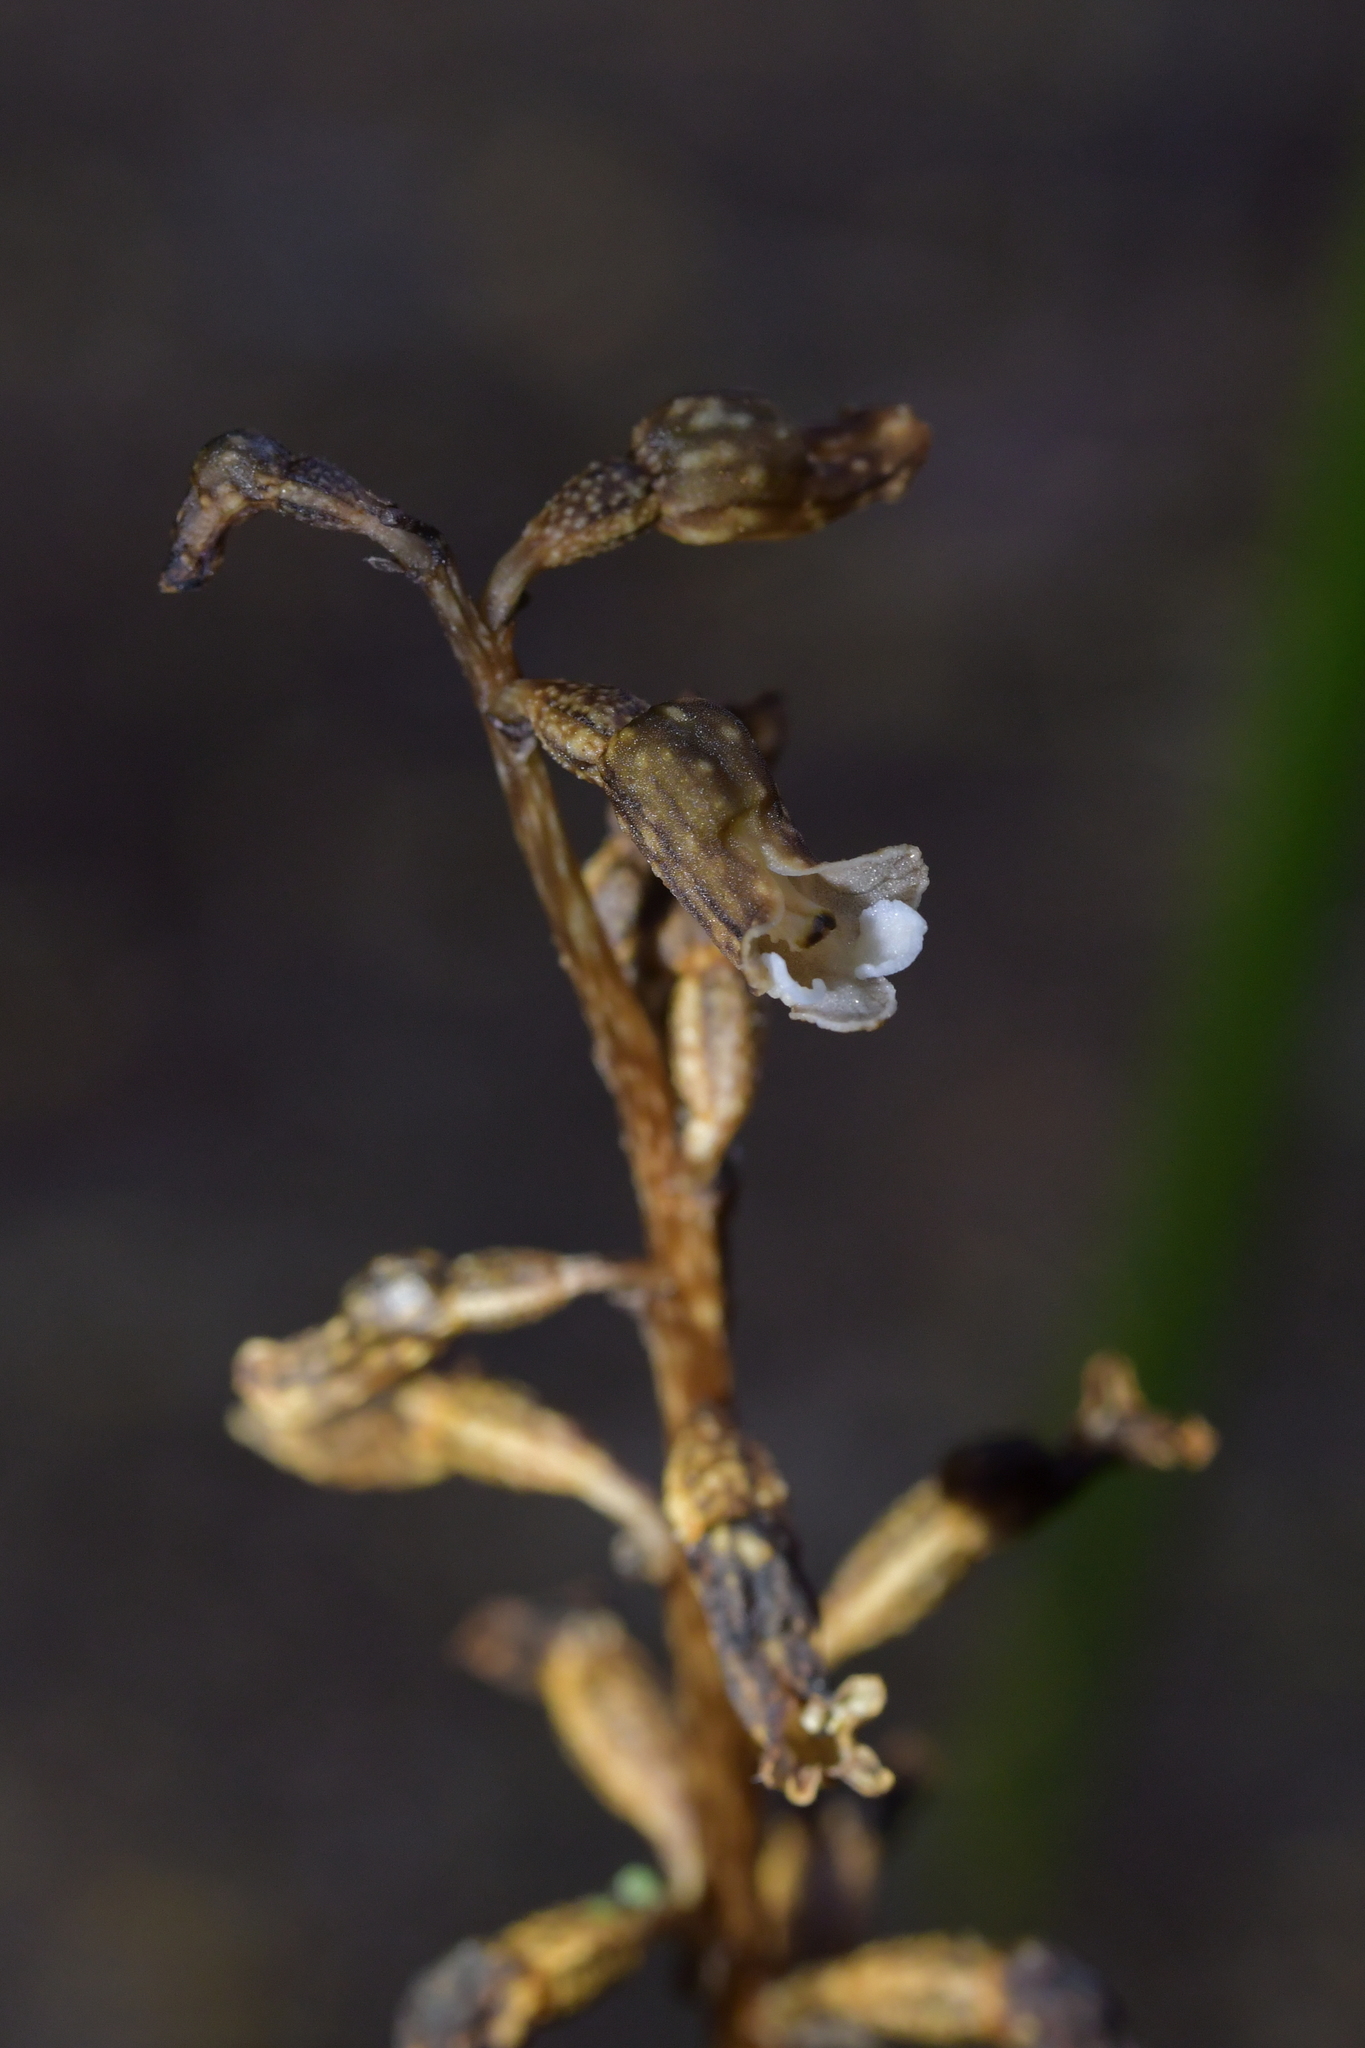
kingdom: Plantae
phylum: Tracheophyta
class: Liliopsida
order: Asparagales
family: Orchidaceae
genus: Gastrodia
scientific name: Gastrodia cunninghamii
